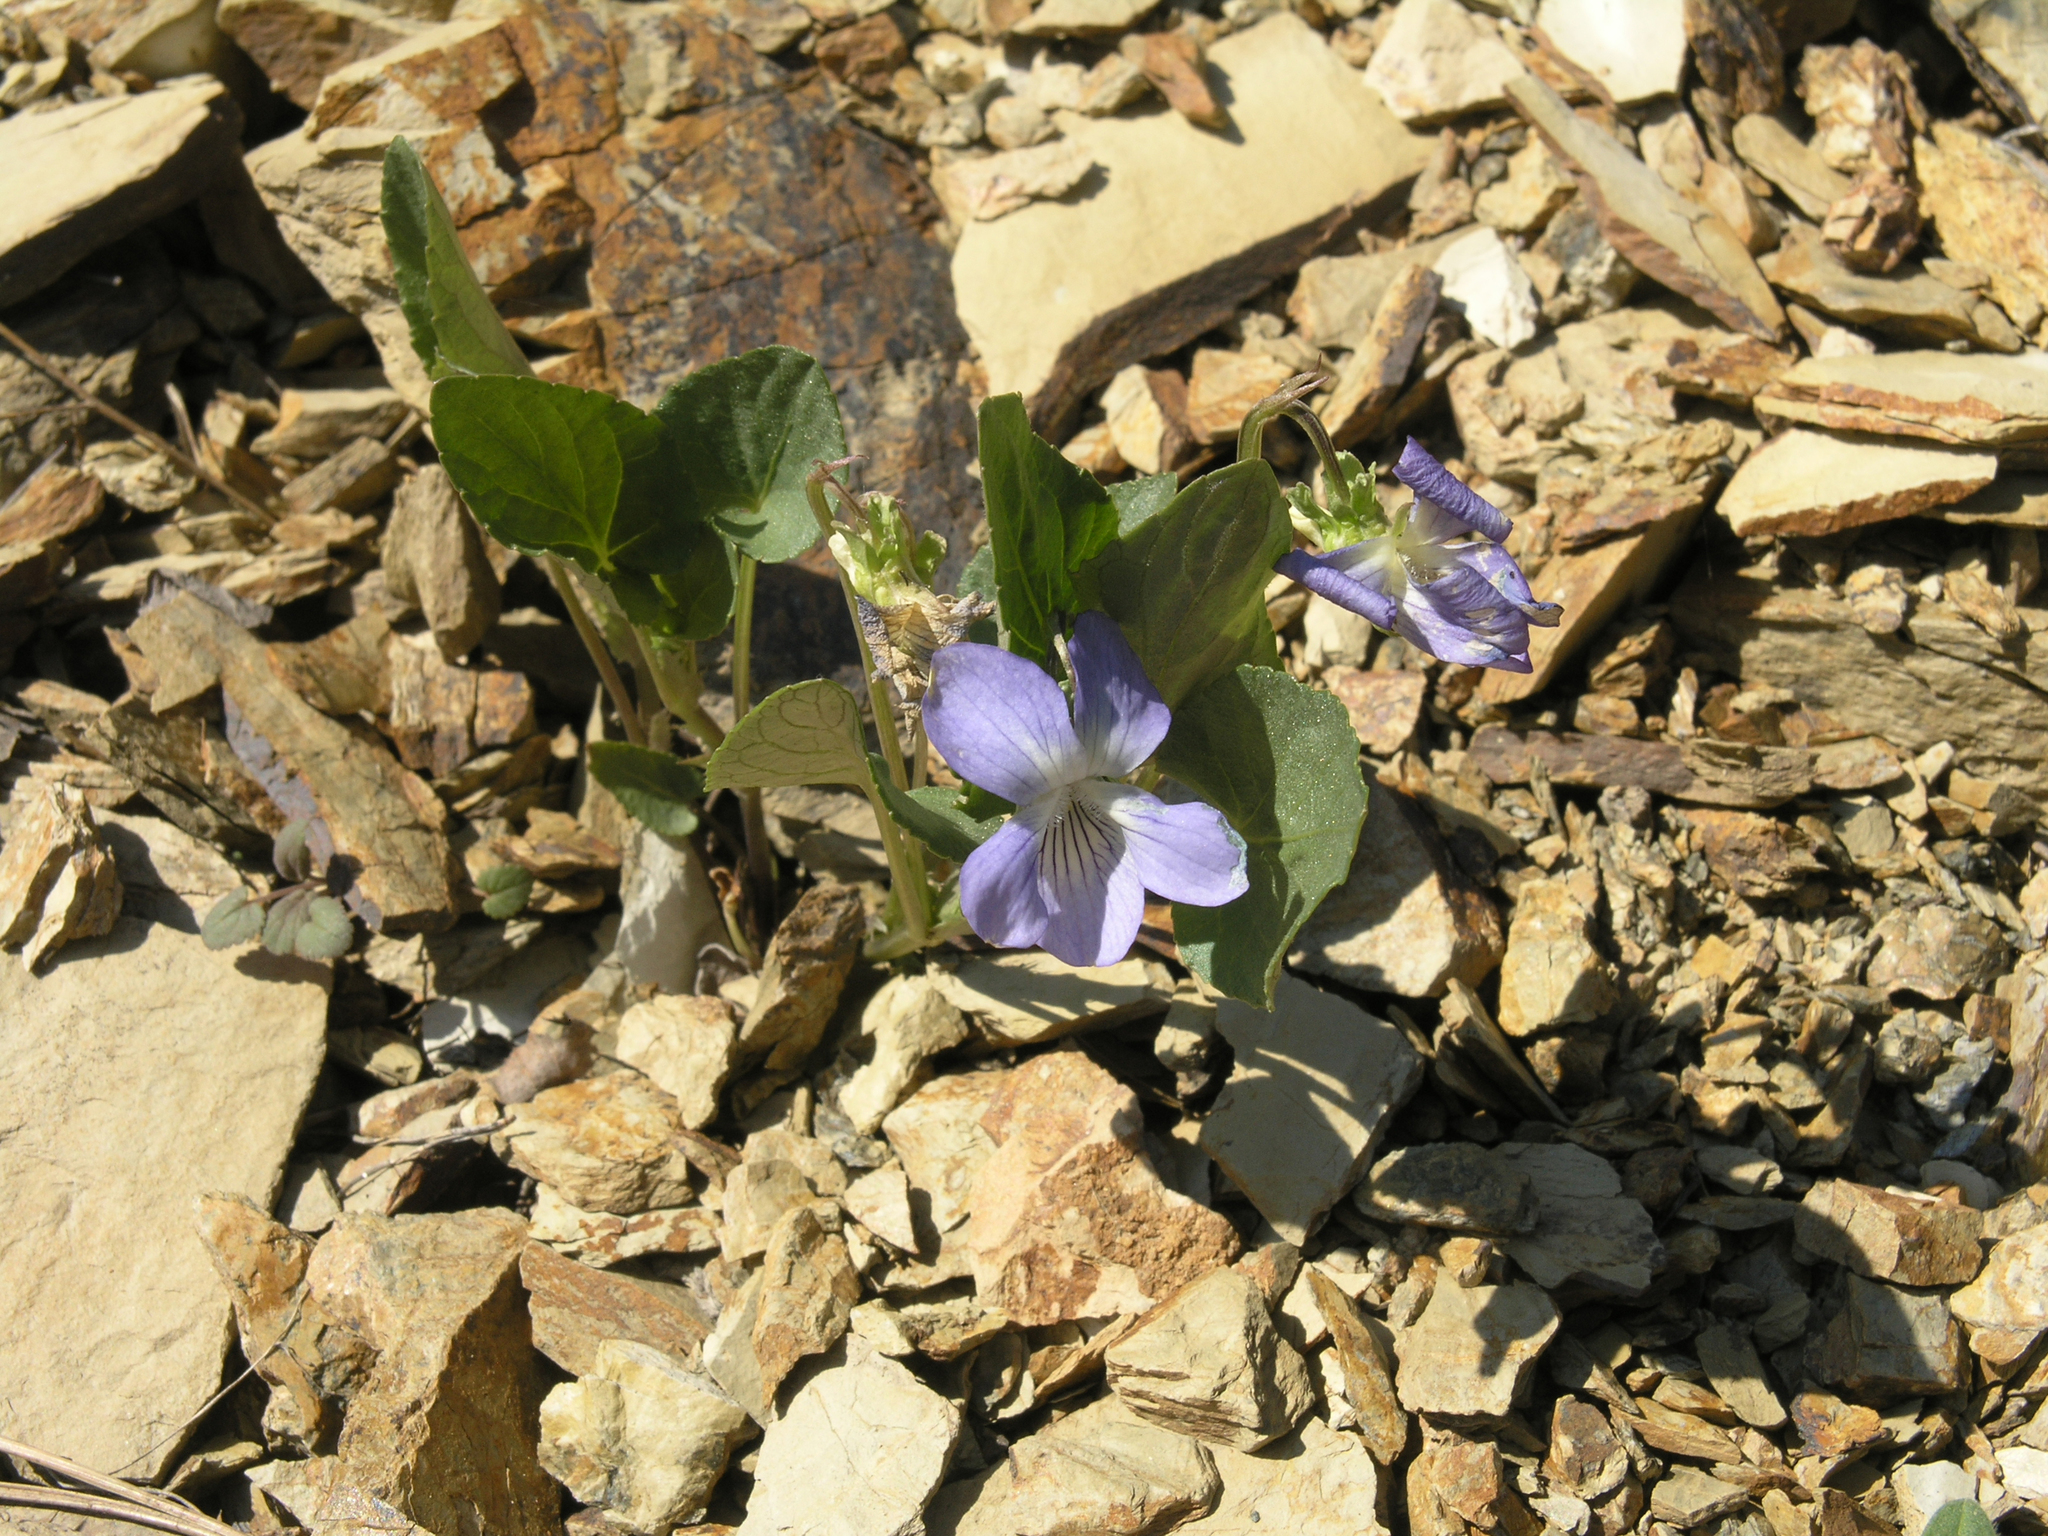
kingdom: Plantae
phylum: Tracheophyta
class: Magnoliopsida
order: Malpighiales
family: Violaceae
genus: Viola
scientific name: Viola canina
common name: Heath dog-violet
